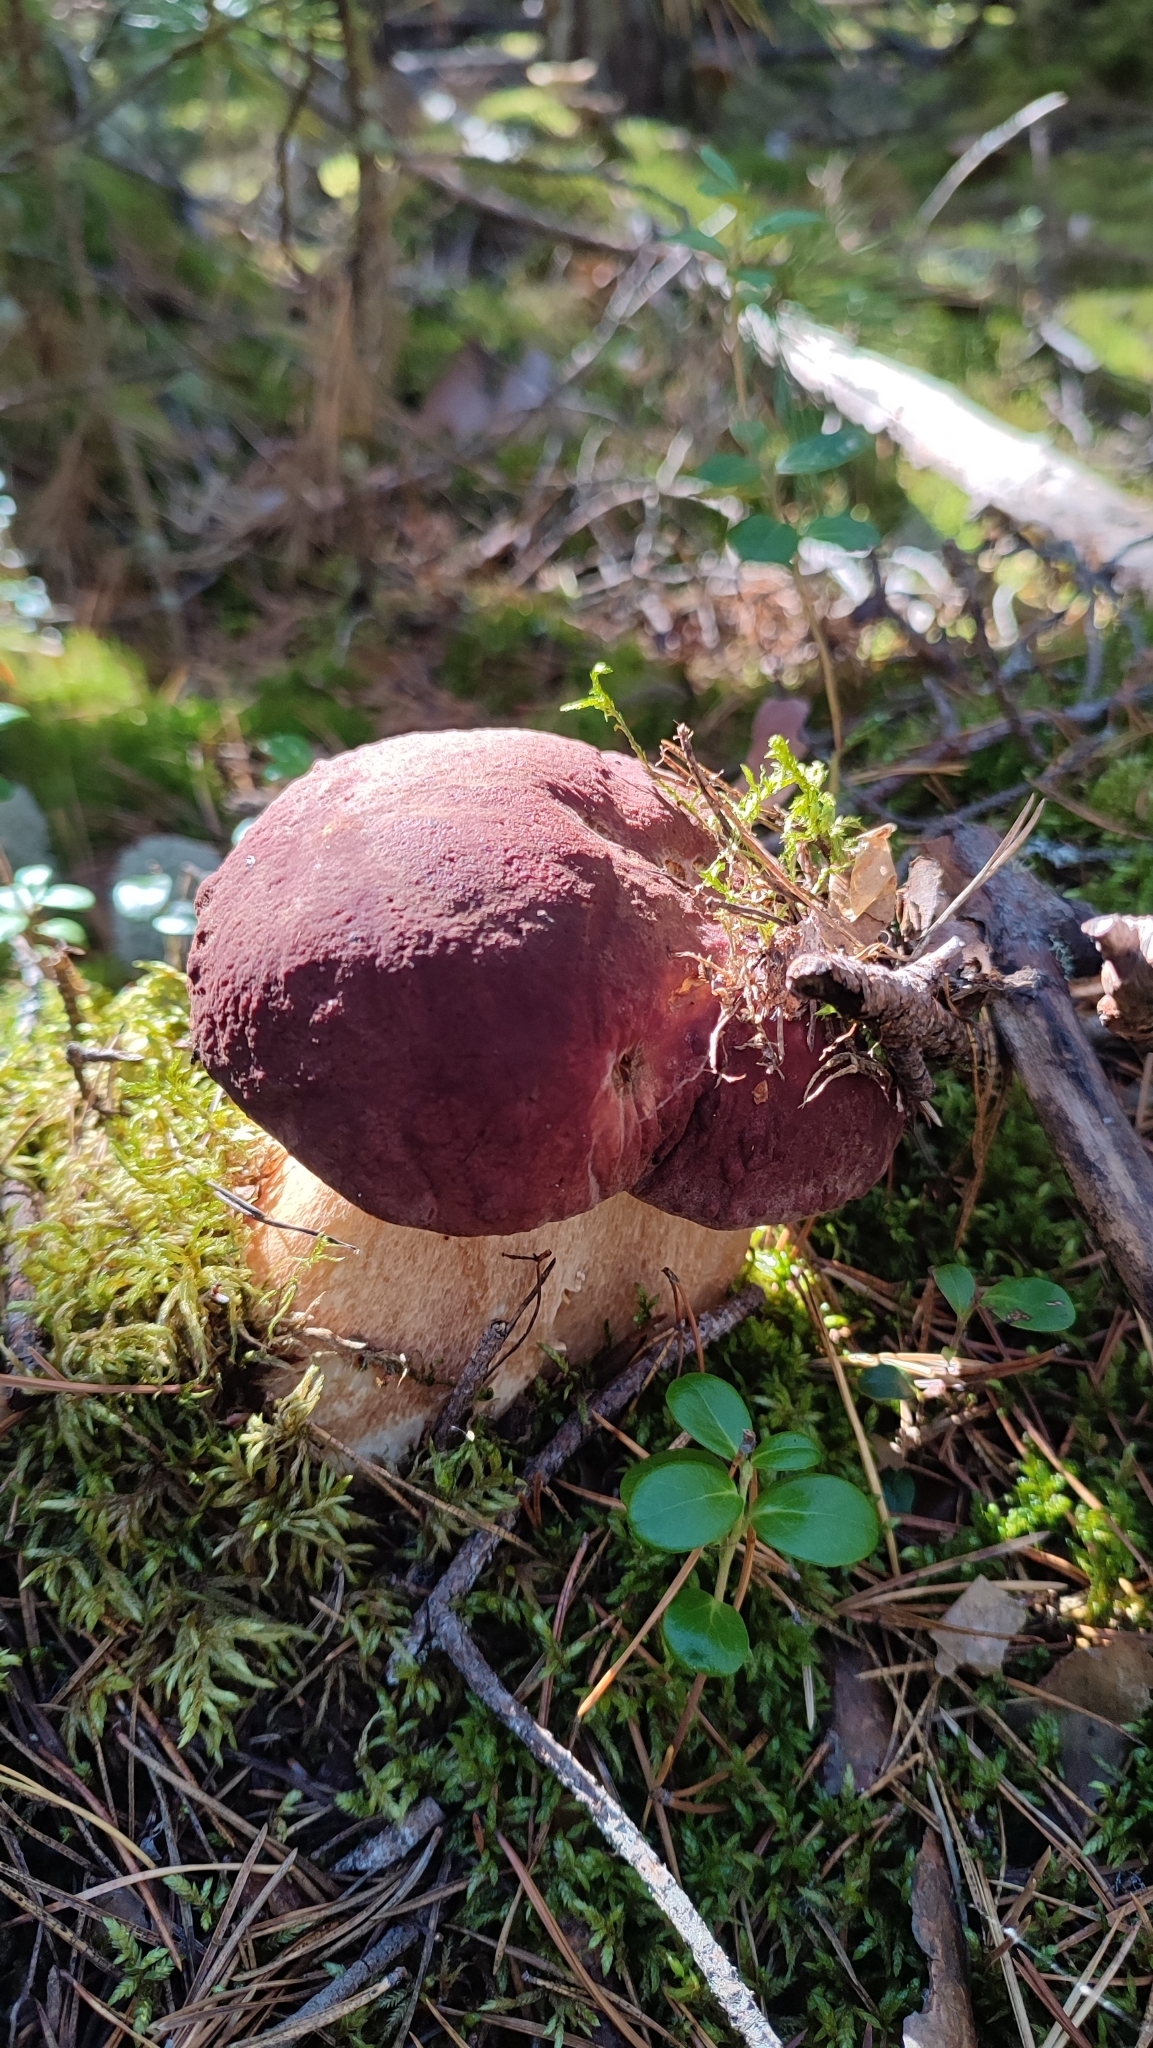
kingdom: Fungi
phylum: Basidiomycota
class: Agaricomycetes
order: Boletales
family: Boletaceae
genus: Boletus
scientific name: Boletus pinophilus
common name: Pine bolete
